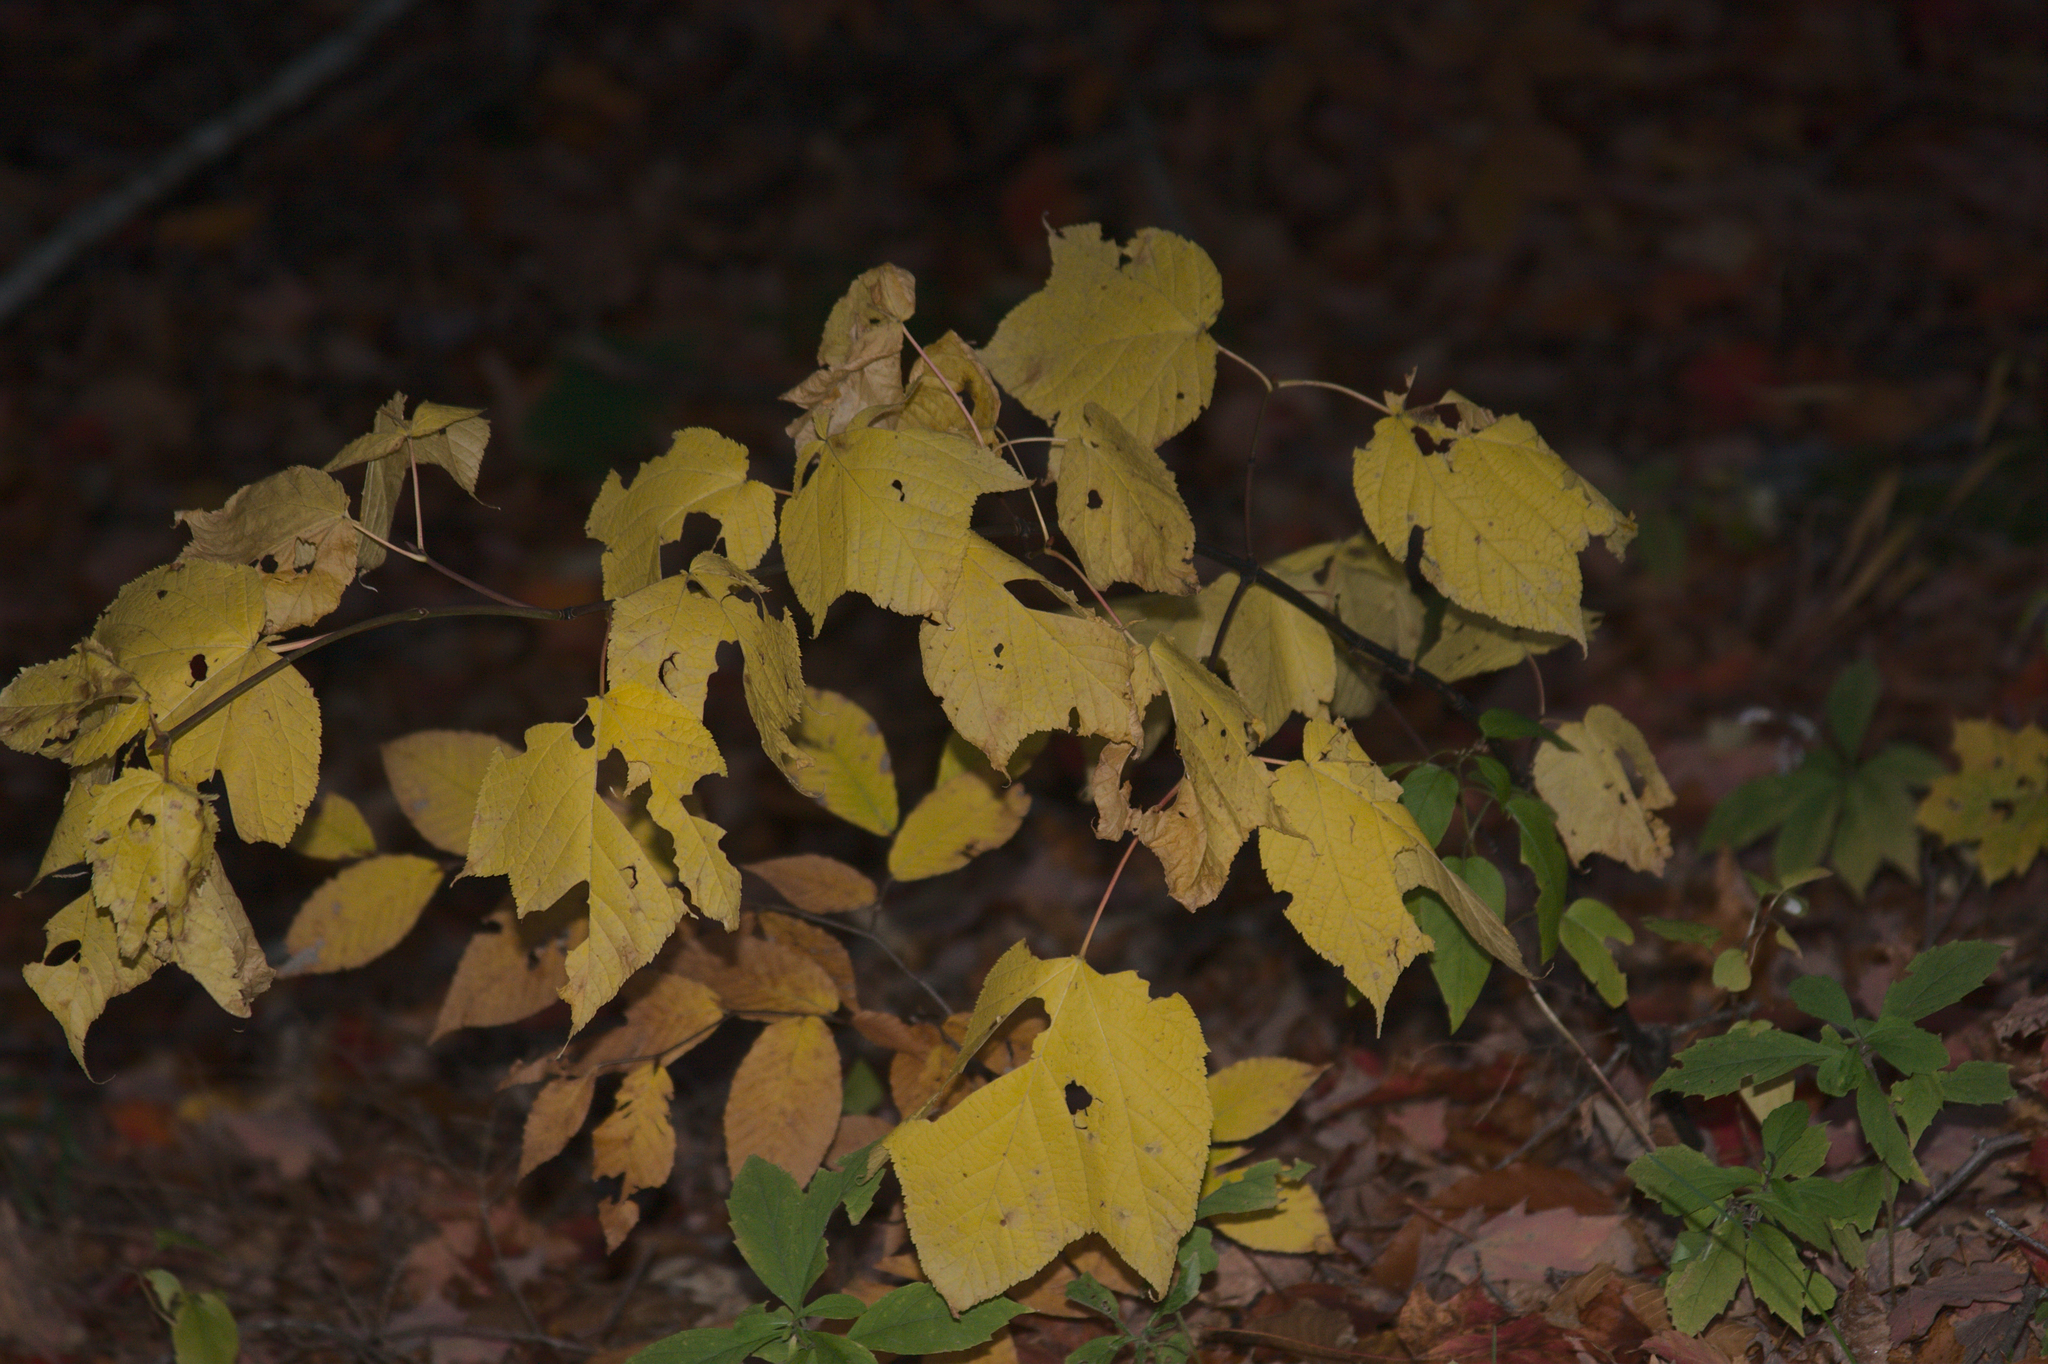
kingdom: Plantae
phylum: Tracheophyta
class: Magnoliopsida
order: Sapindales
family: Sapindaceae
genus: Acer
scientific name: Acer pensylvanicum
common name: Moosewood
